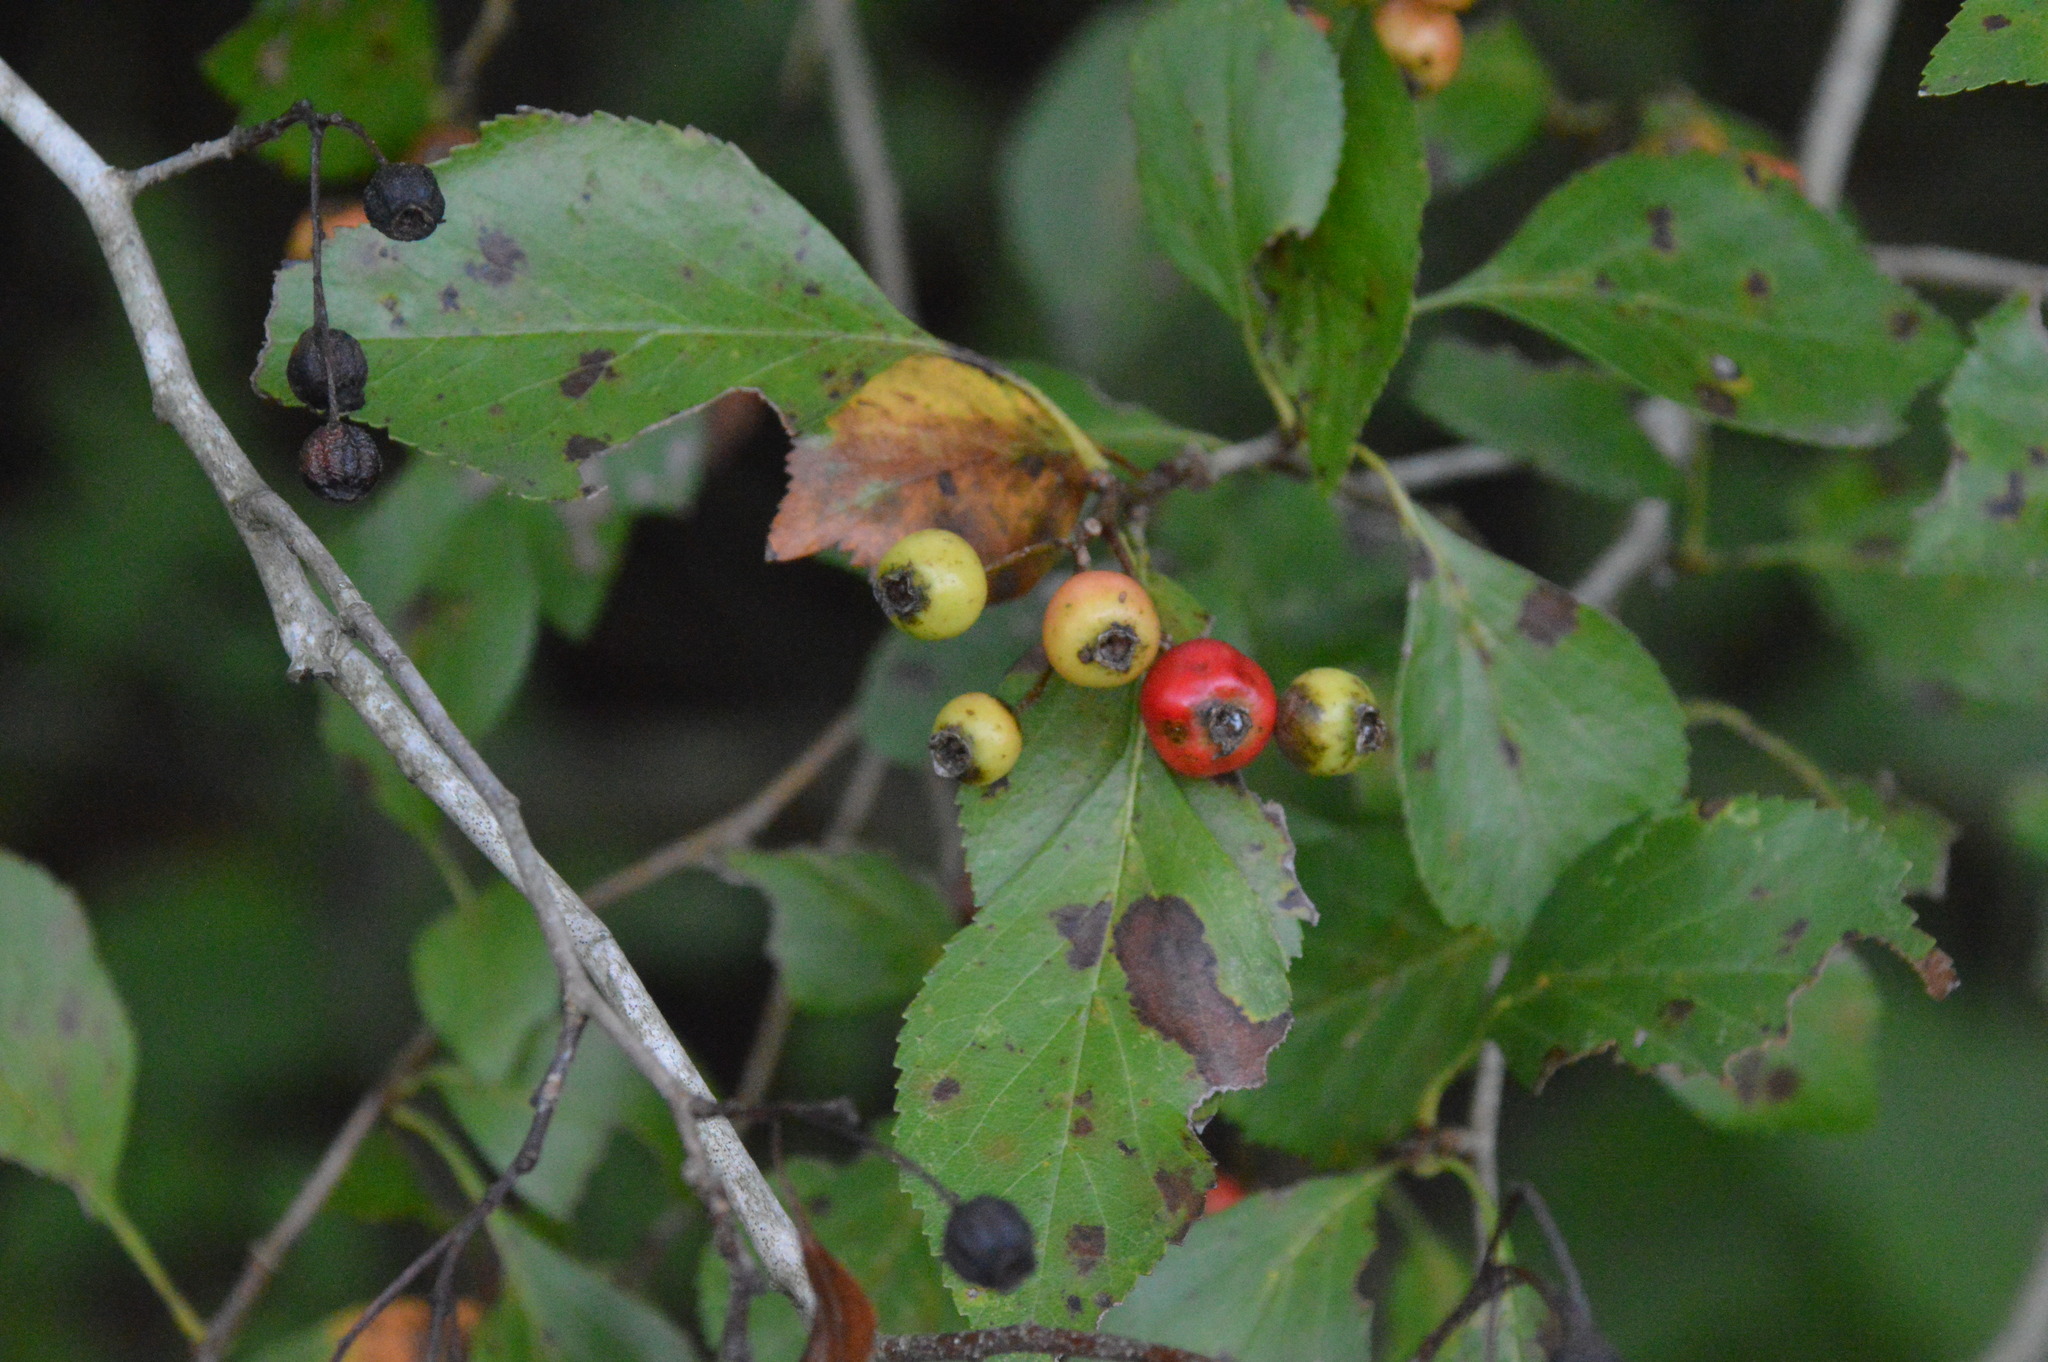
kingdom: Plantae
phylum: Tracheophyta
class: Magnoliopsida
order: Rosales
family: Rosaceae
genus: Crataegus
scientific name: Crataegus viridis
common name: Southernthorn
